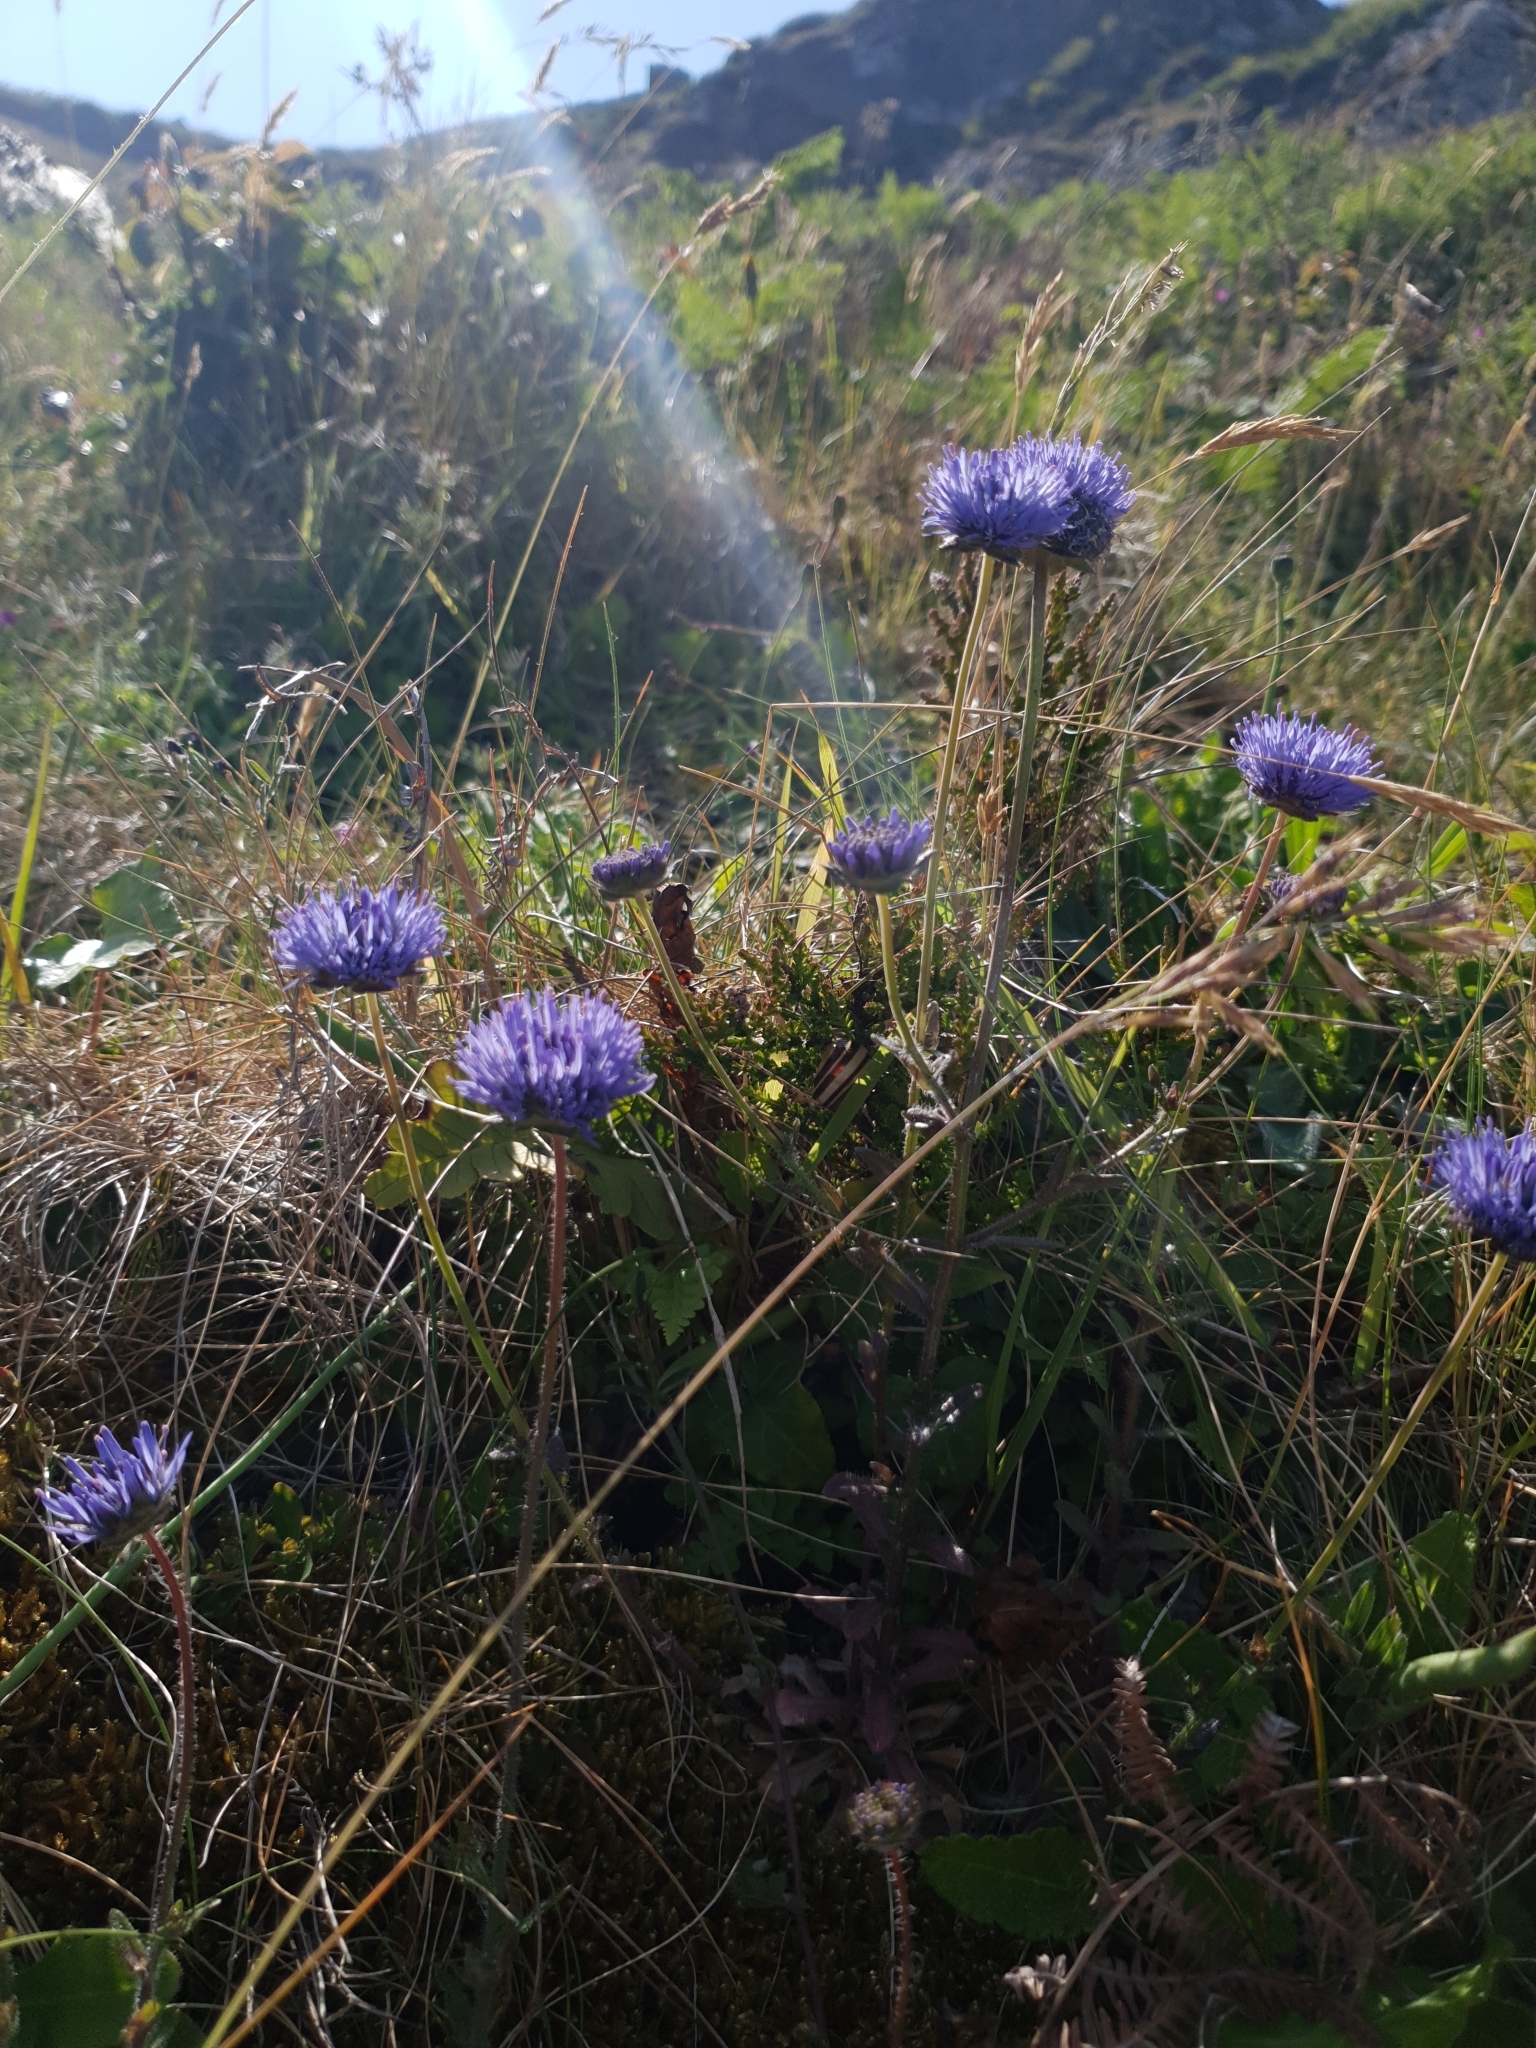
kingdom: Plantae
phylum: Tracheophyta
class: Magnoliopsida
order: Asterales
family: Campanulaceae
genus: Jasione
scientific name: Jasione montana
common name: Sheep's-bit
